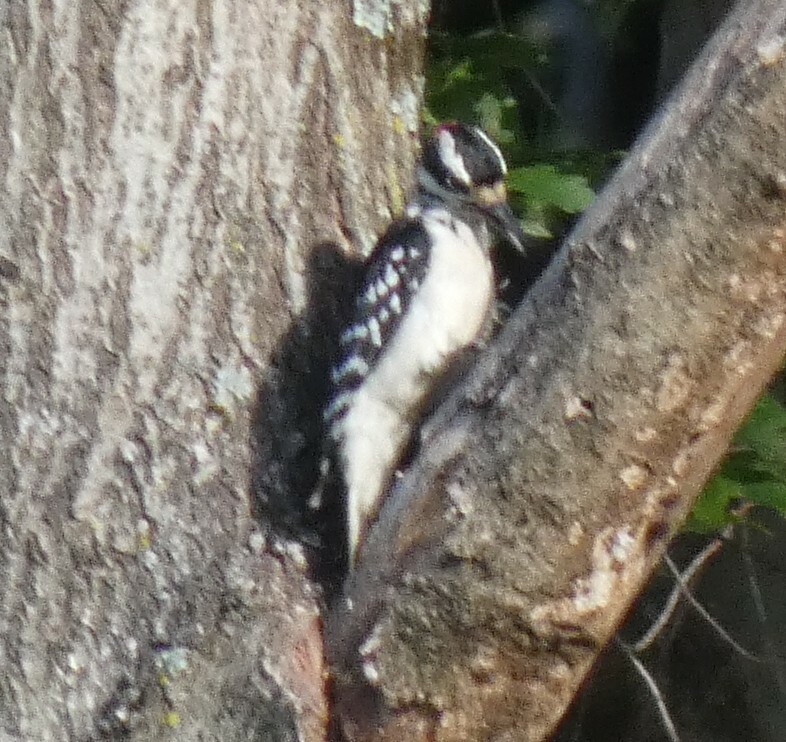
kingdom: Animalia
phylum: Chordata
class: Aves
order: Piciformes
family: Picidae
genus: Leuconotopicus
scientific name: Leuconotopicus villosus
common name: Hairy woodpecker
